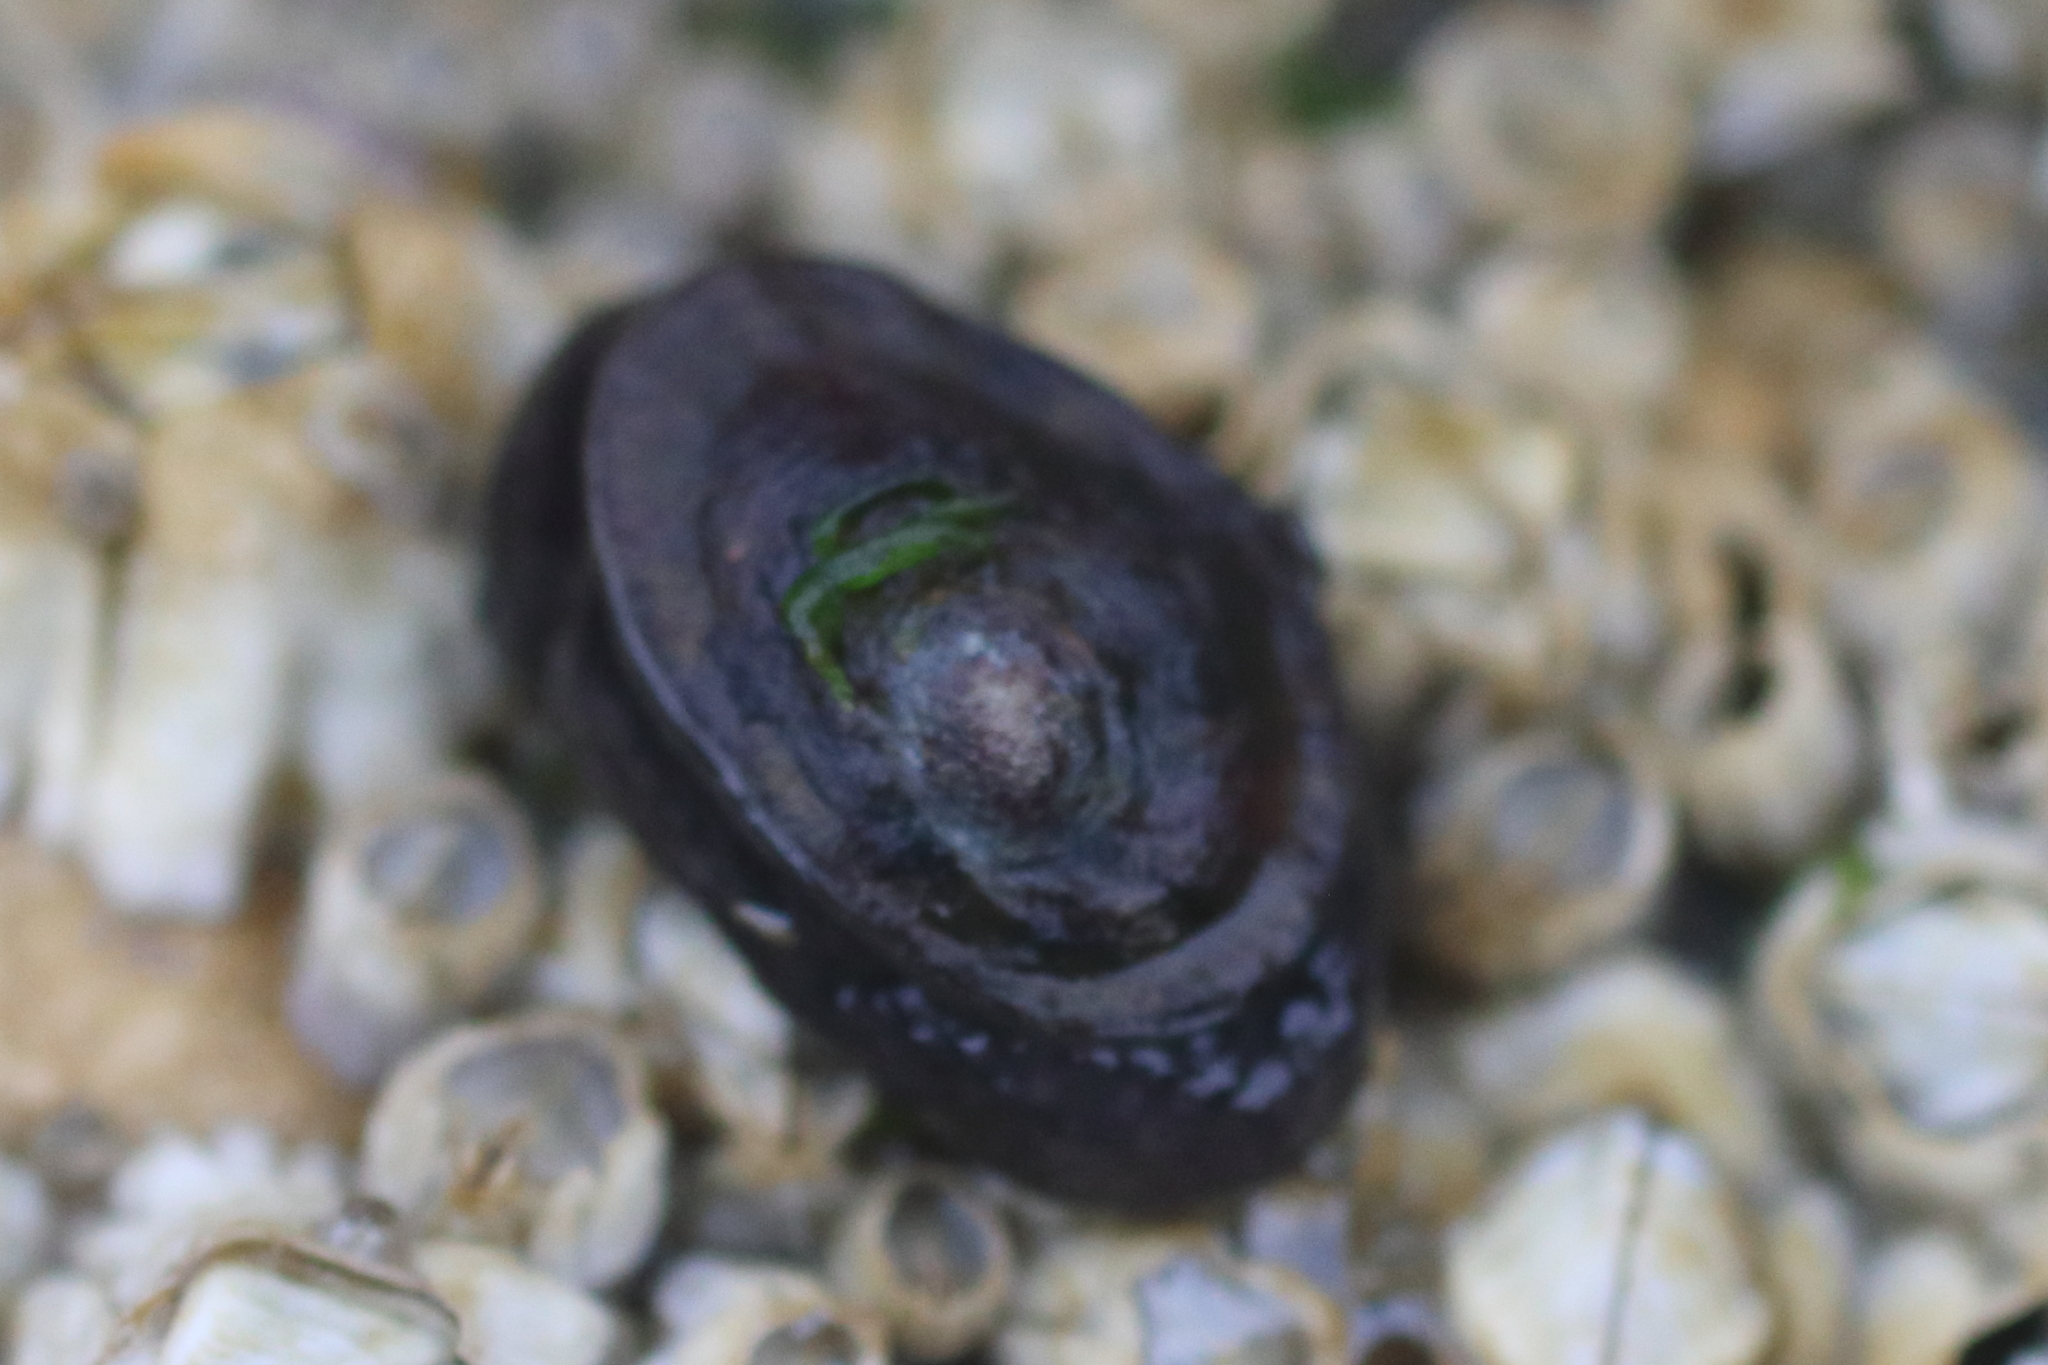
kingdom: Animalia
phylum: Mollusca
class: Gastropoda
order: Siphonariida
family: Siphonariidae
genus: Siphonaria
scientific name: Siphonaria thersites
